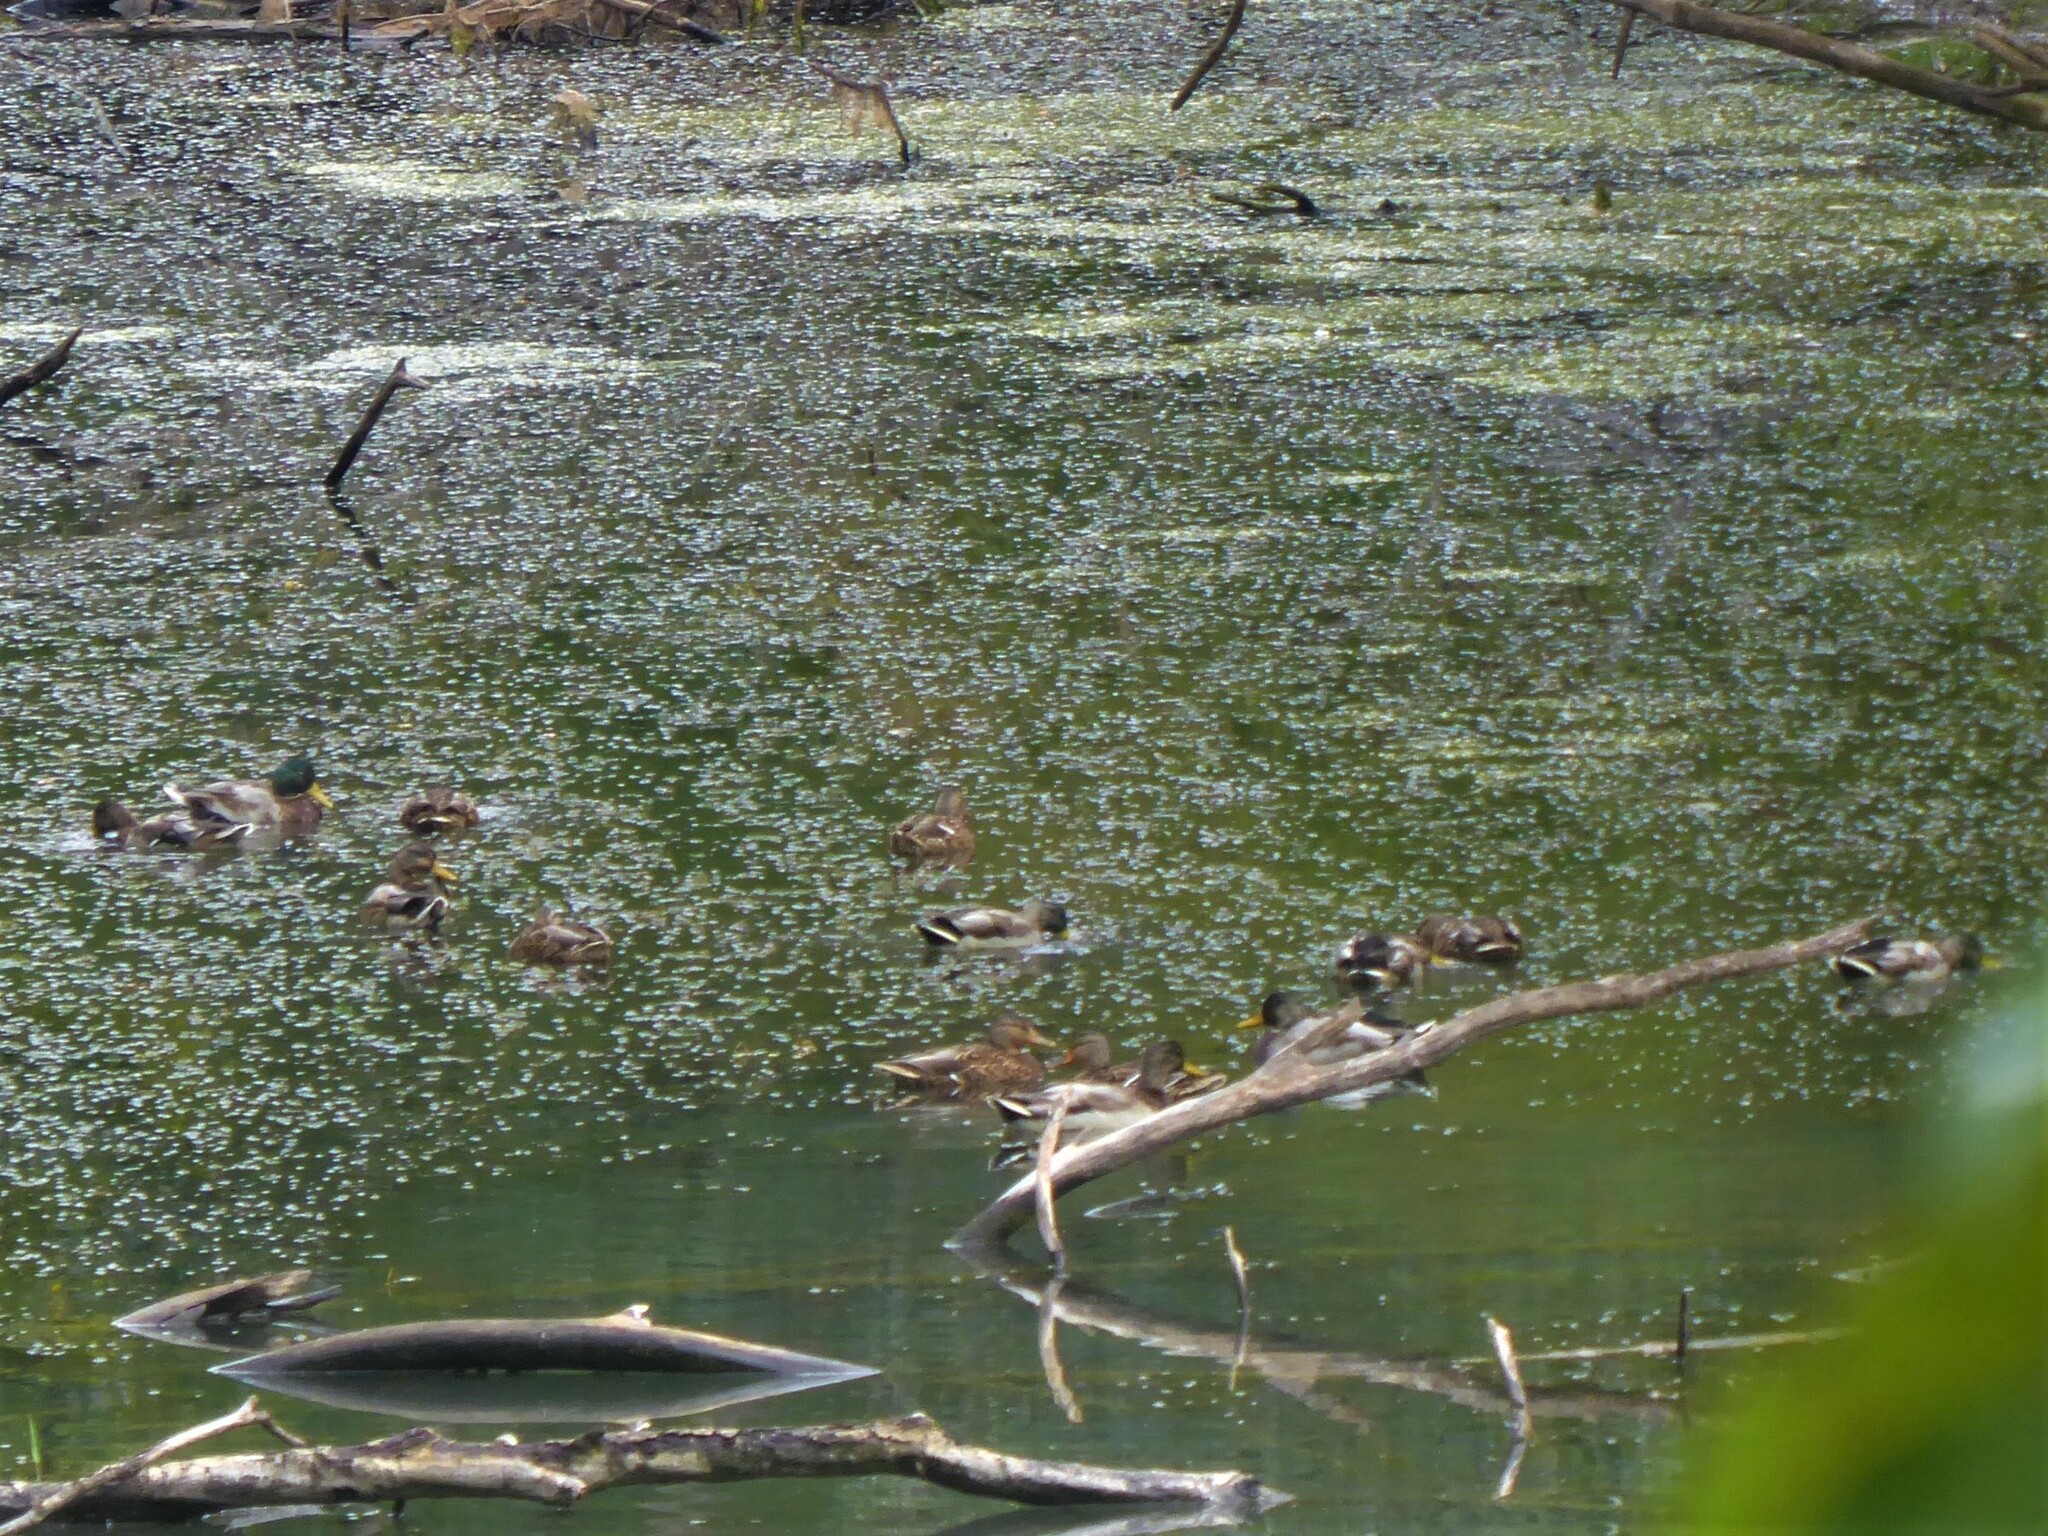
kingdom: Animalia
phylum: Chordata
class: Aves
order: Anseriformes
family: Anatidae
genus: Anas
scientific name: Anas platyrhynchos
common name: Mallard
